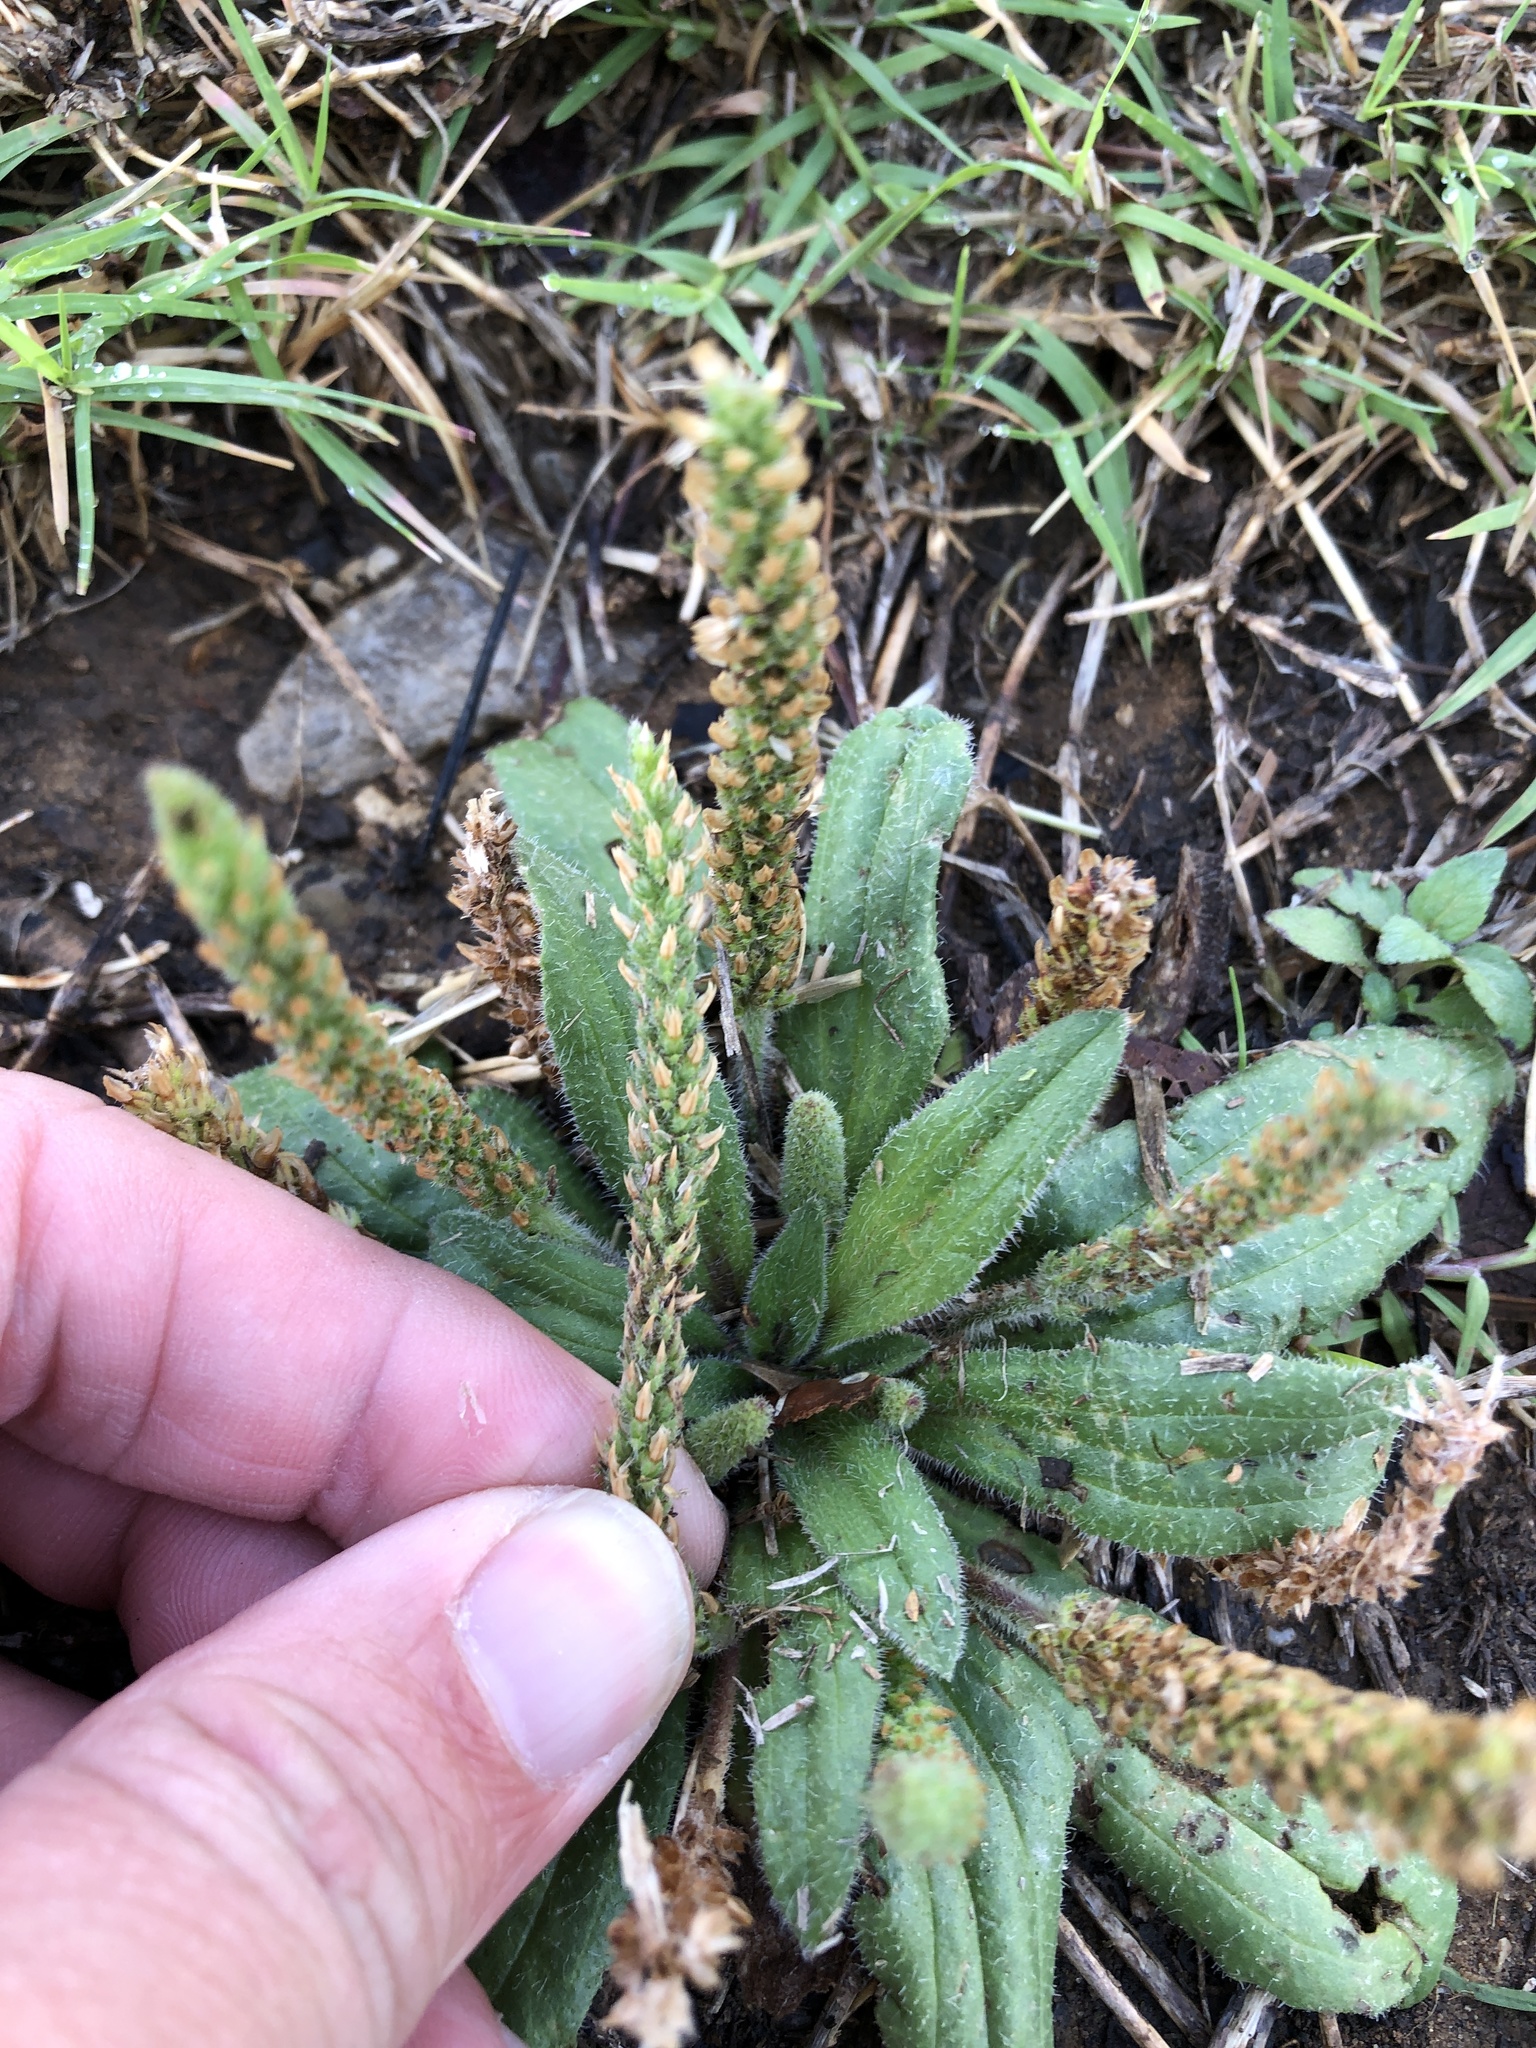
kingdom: Plantae
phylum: Tracheophyta
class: Magnoliopsida
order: Lamiales
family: Plantaginaceae
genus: Plantago
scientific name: Plantago rhodosperma
